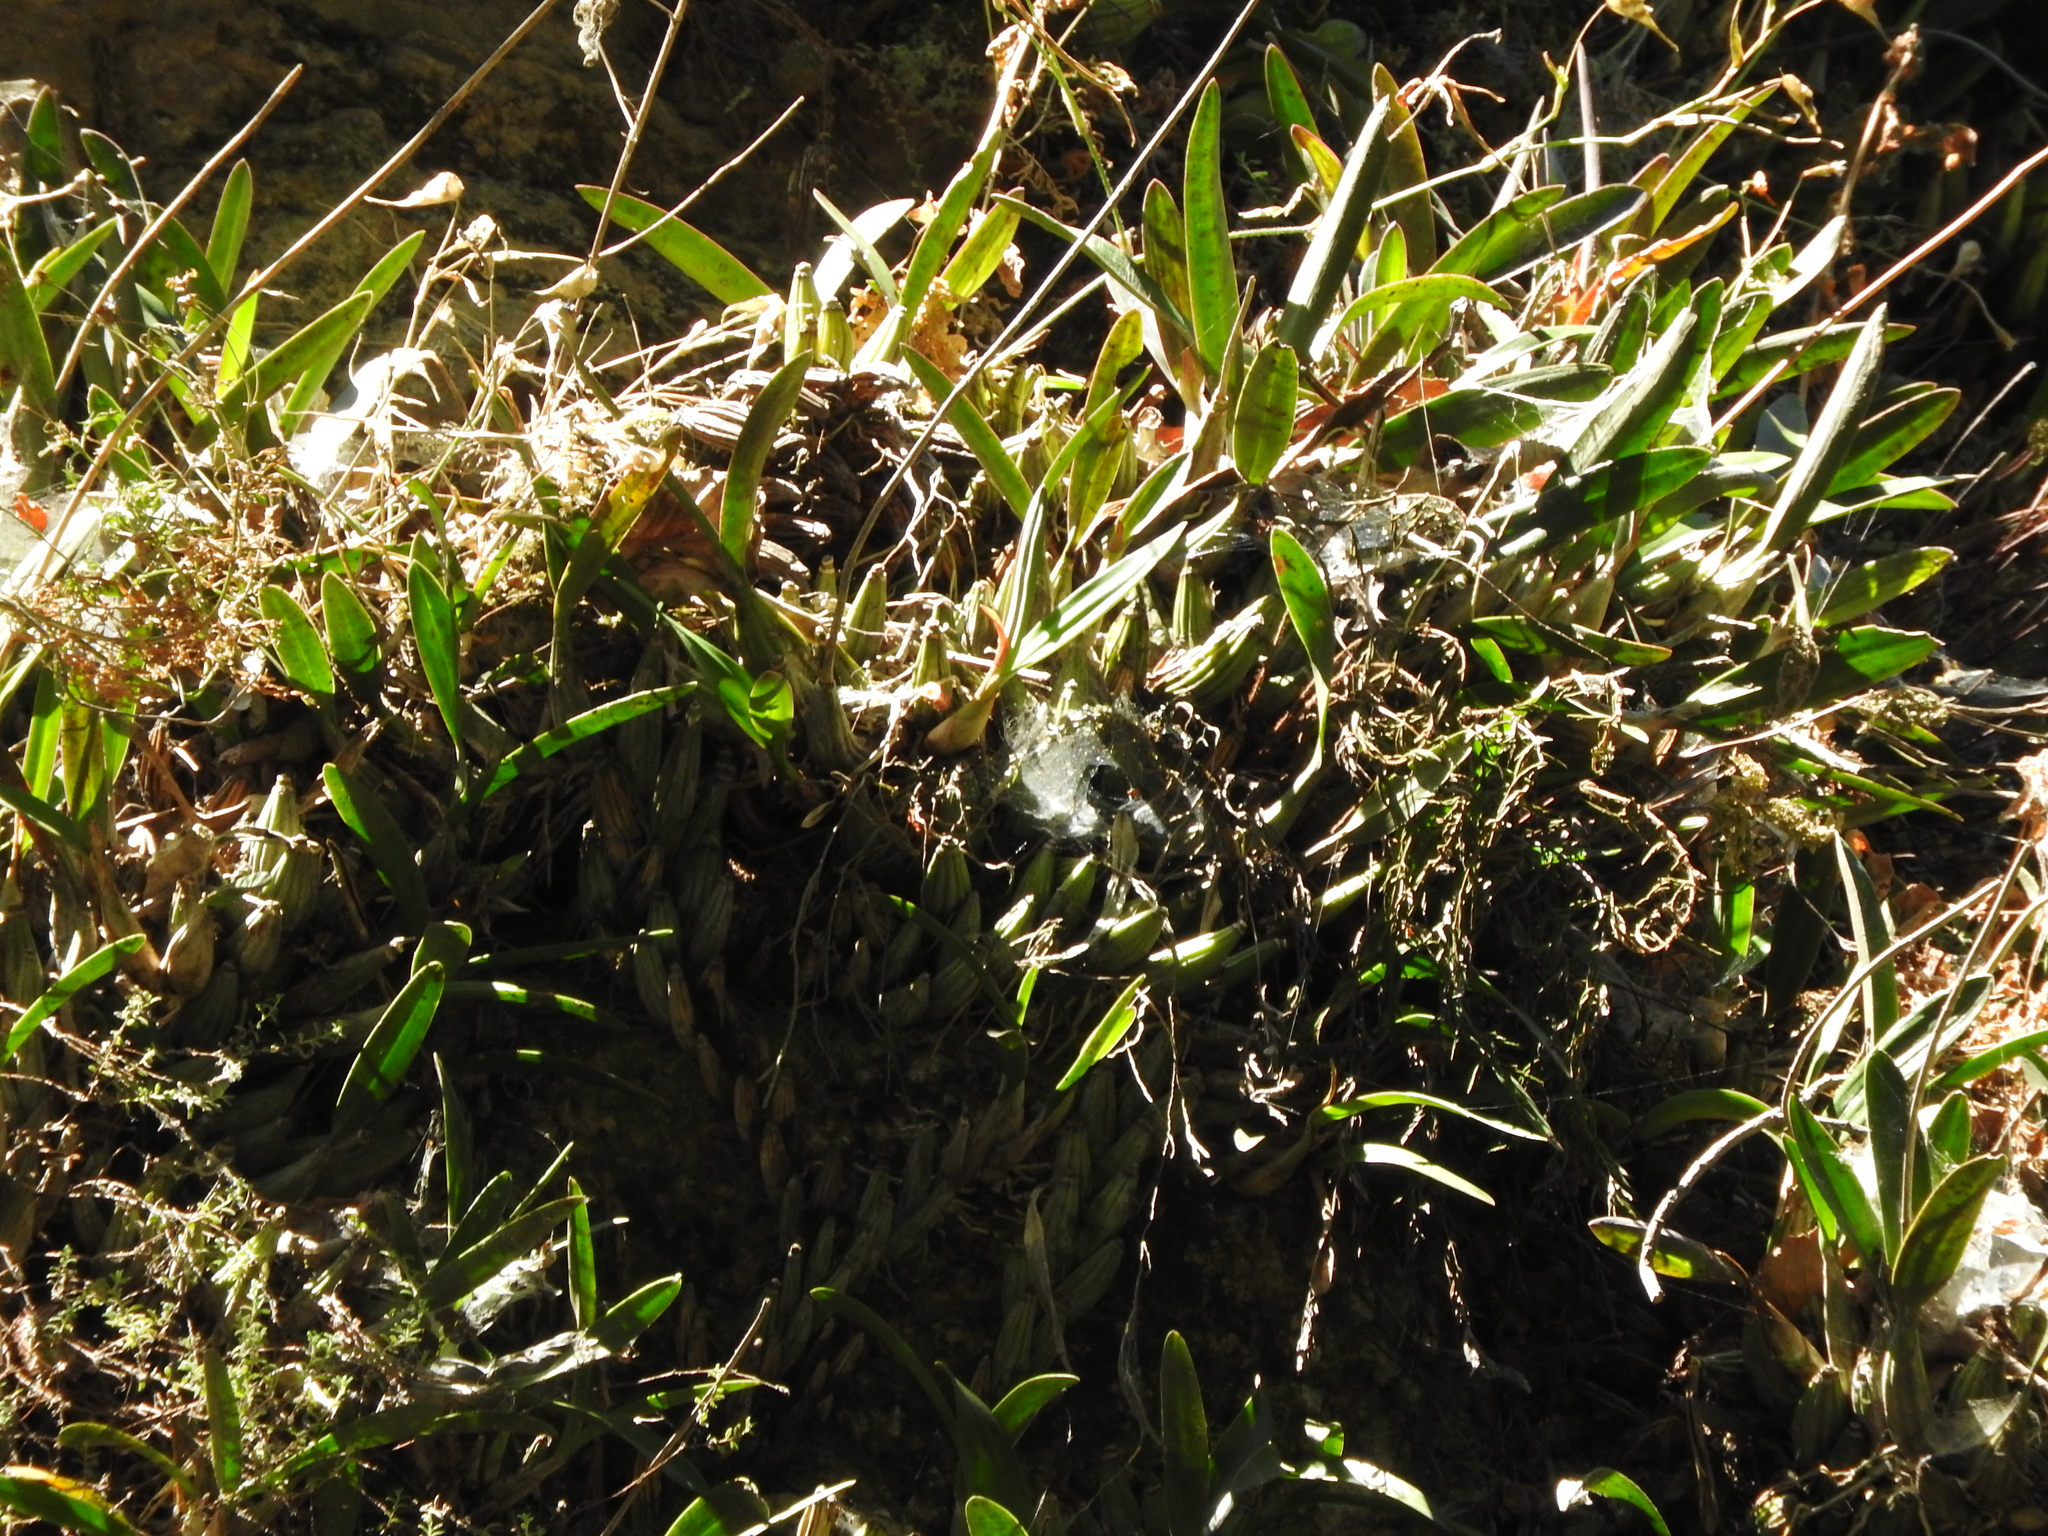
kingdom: Plantae
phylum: Tracheophyta
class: Liliopsida
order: Asparagales
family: Orchidaceae
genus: Laelia
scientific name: Laelia autumnalis
